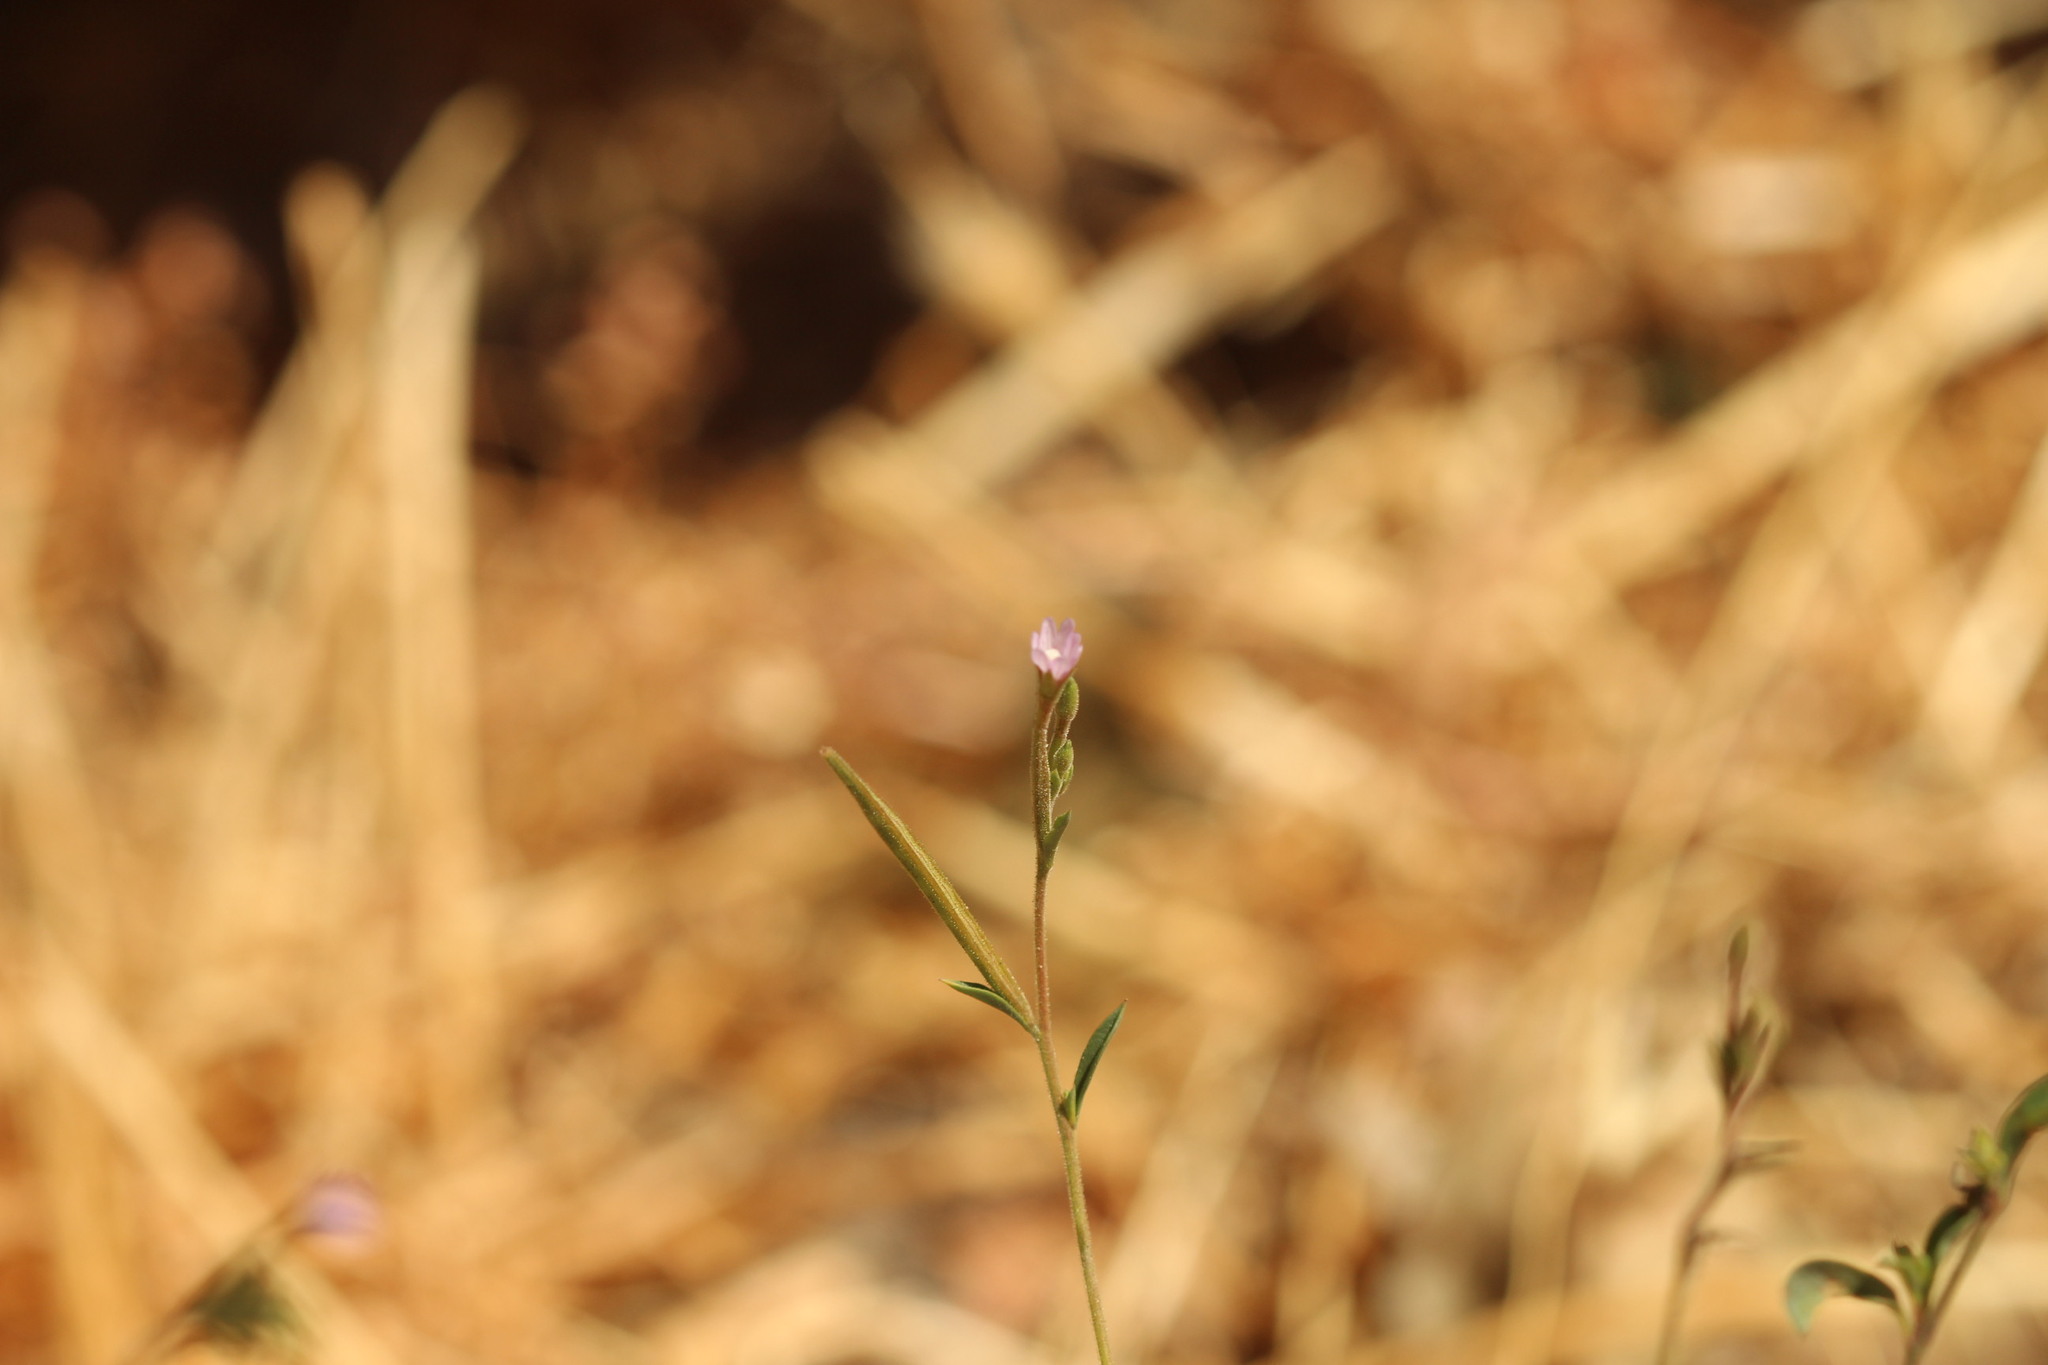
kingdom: Plantae
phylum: Tracheophyta
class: Magnoliopsida
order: Myrtales
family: Onagraceae
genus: Epilobium
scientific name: Epilobium brachycarpum
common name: Annual willowherb
